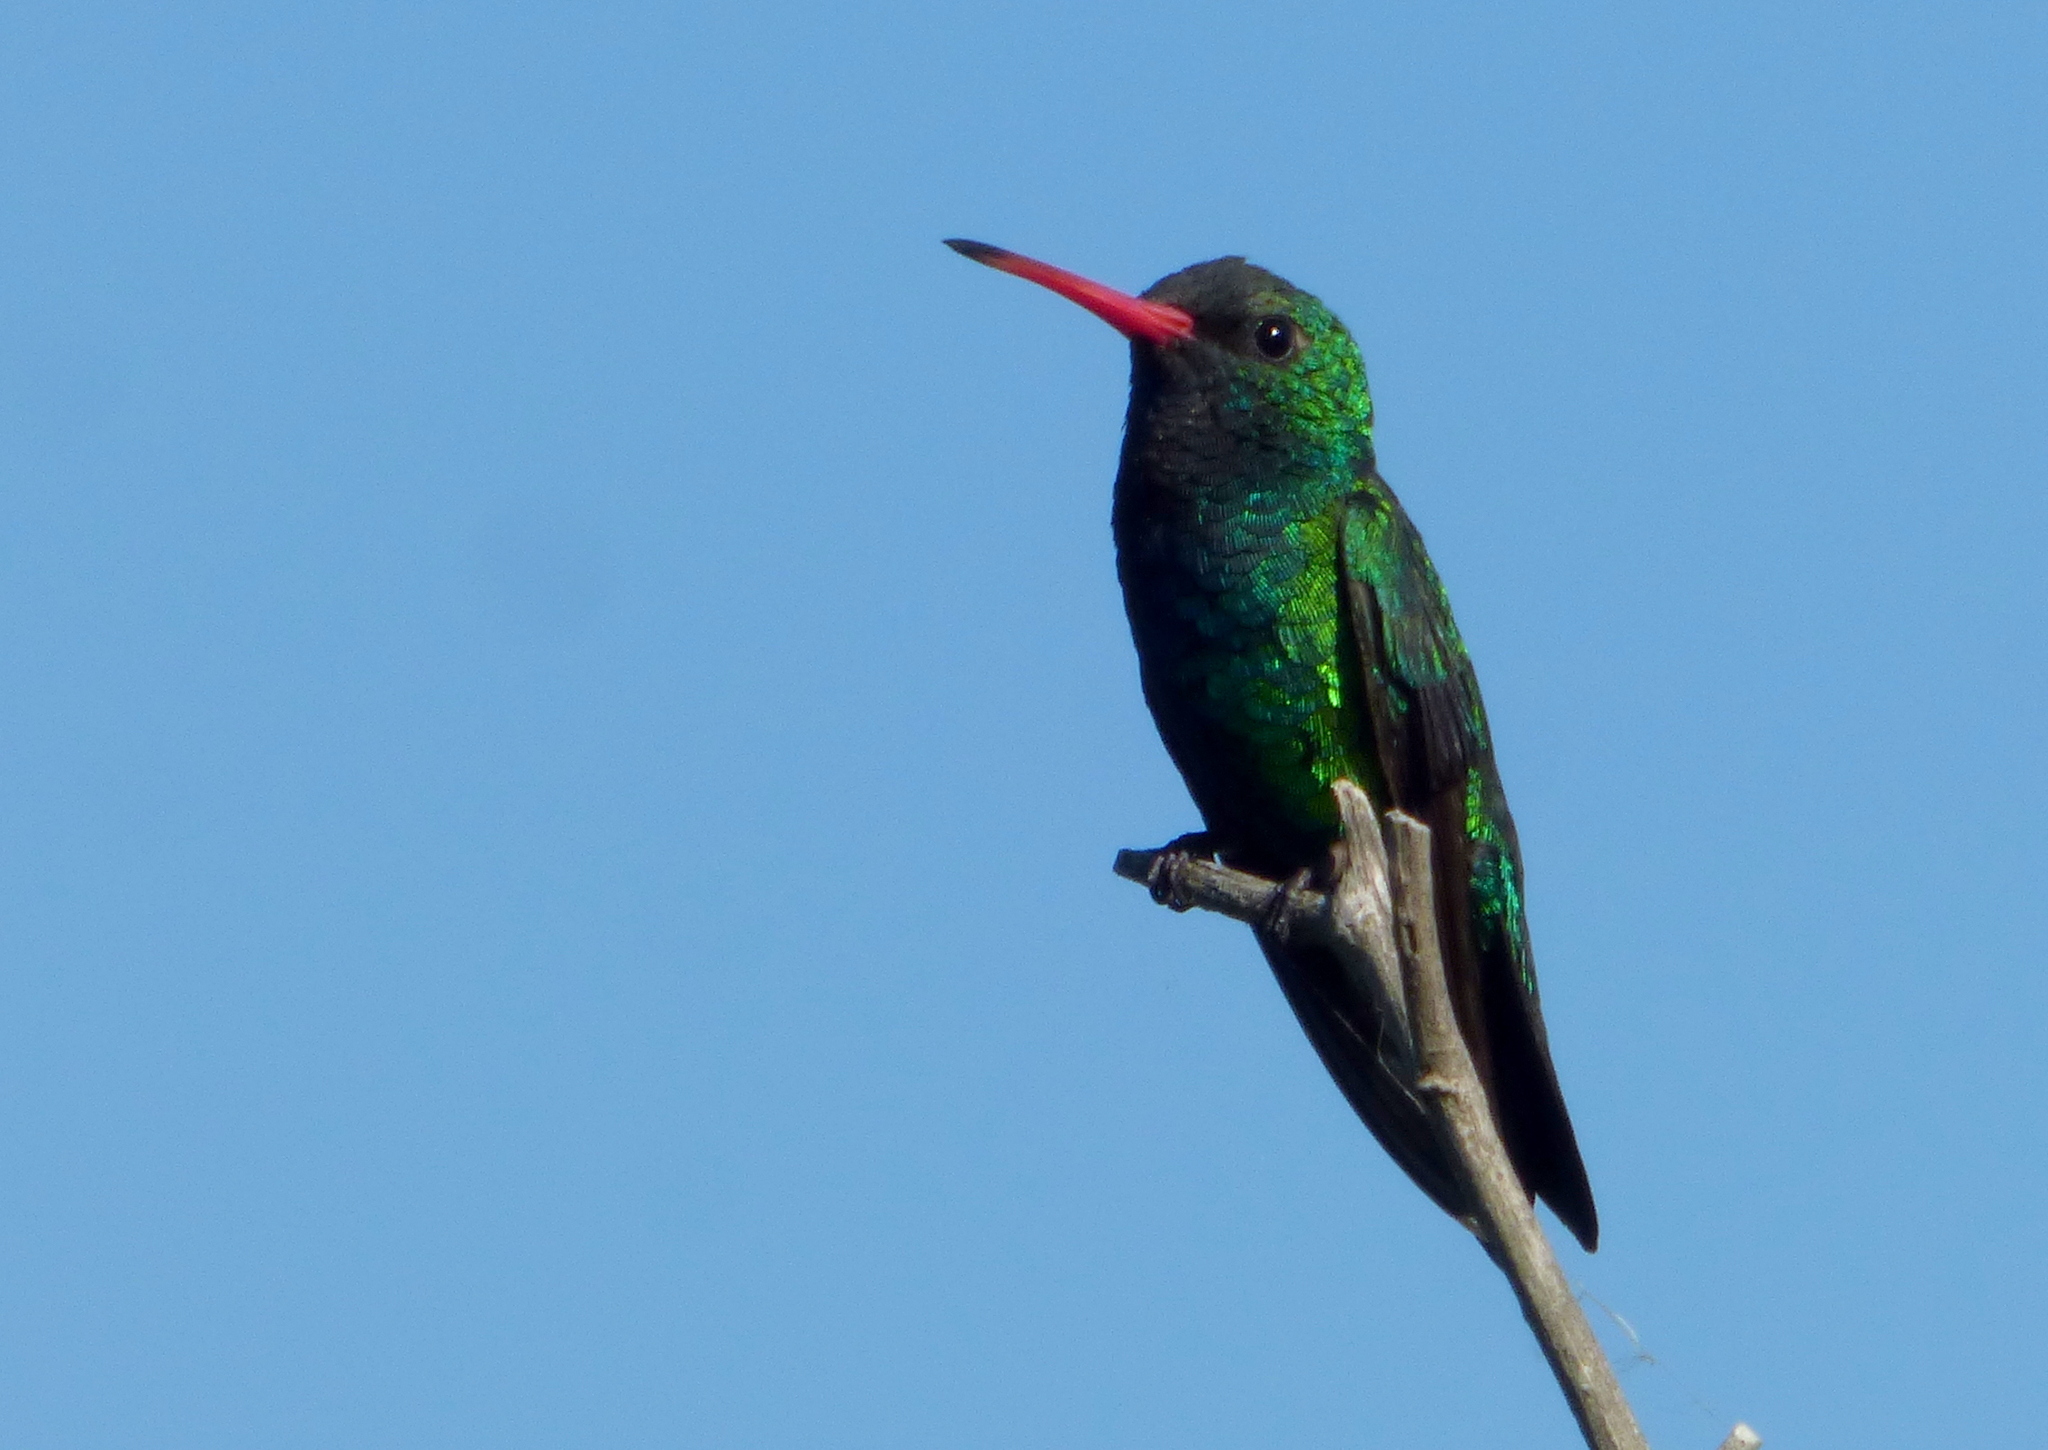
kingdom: Animalia
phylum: Chordata
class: Aves
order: Apodiformes
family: Trochilidae
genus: Chlorostilbon
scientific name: Chlorostilbon lucidus
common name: Glittering-bellied emerald
